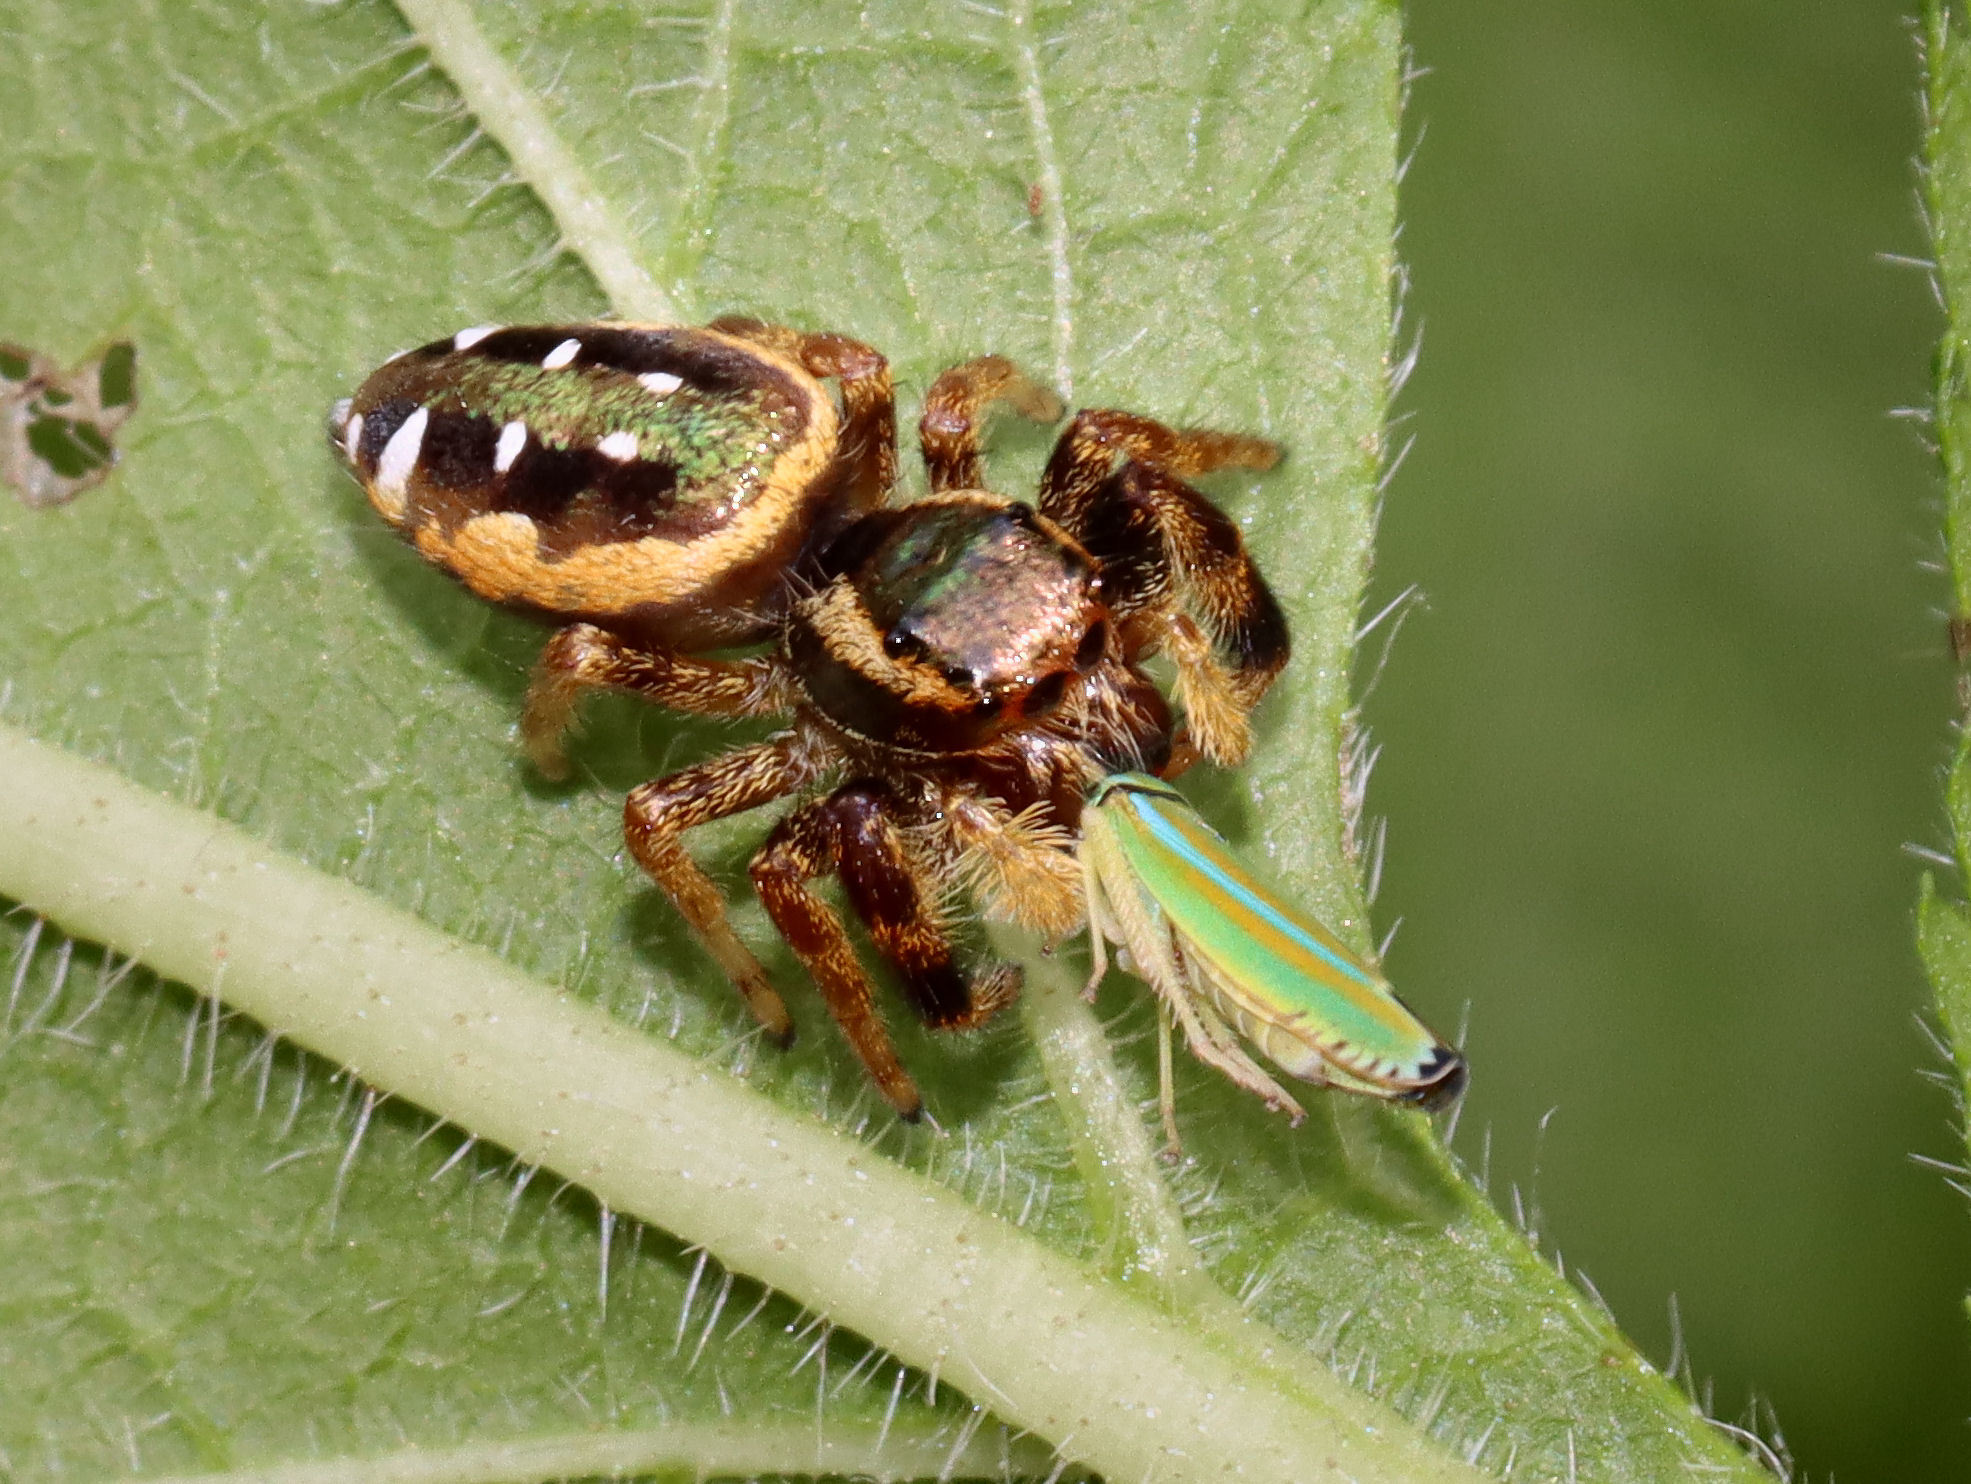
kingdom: Animalia
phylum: Arthropoda
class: Arachnida
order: Araneae
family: Salticidae
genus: Paraphidippus
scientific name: Paraphidippus aurantius
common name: Jumping spiders
